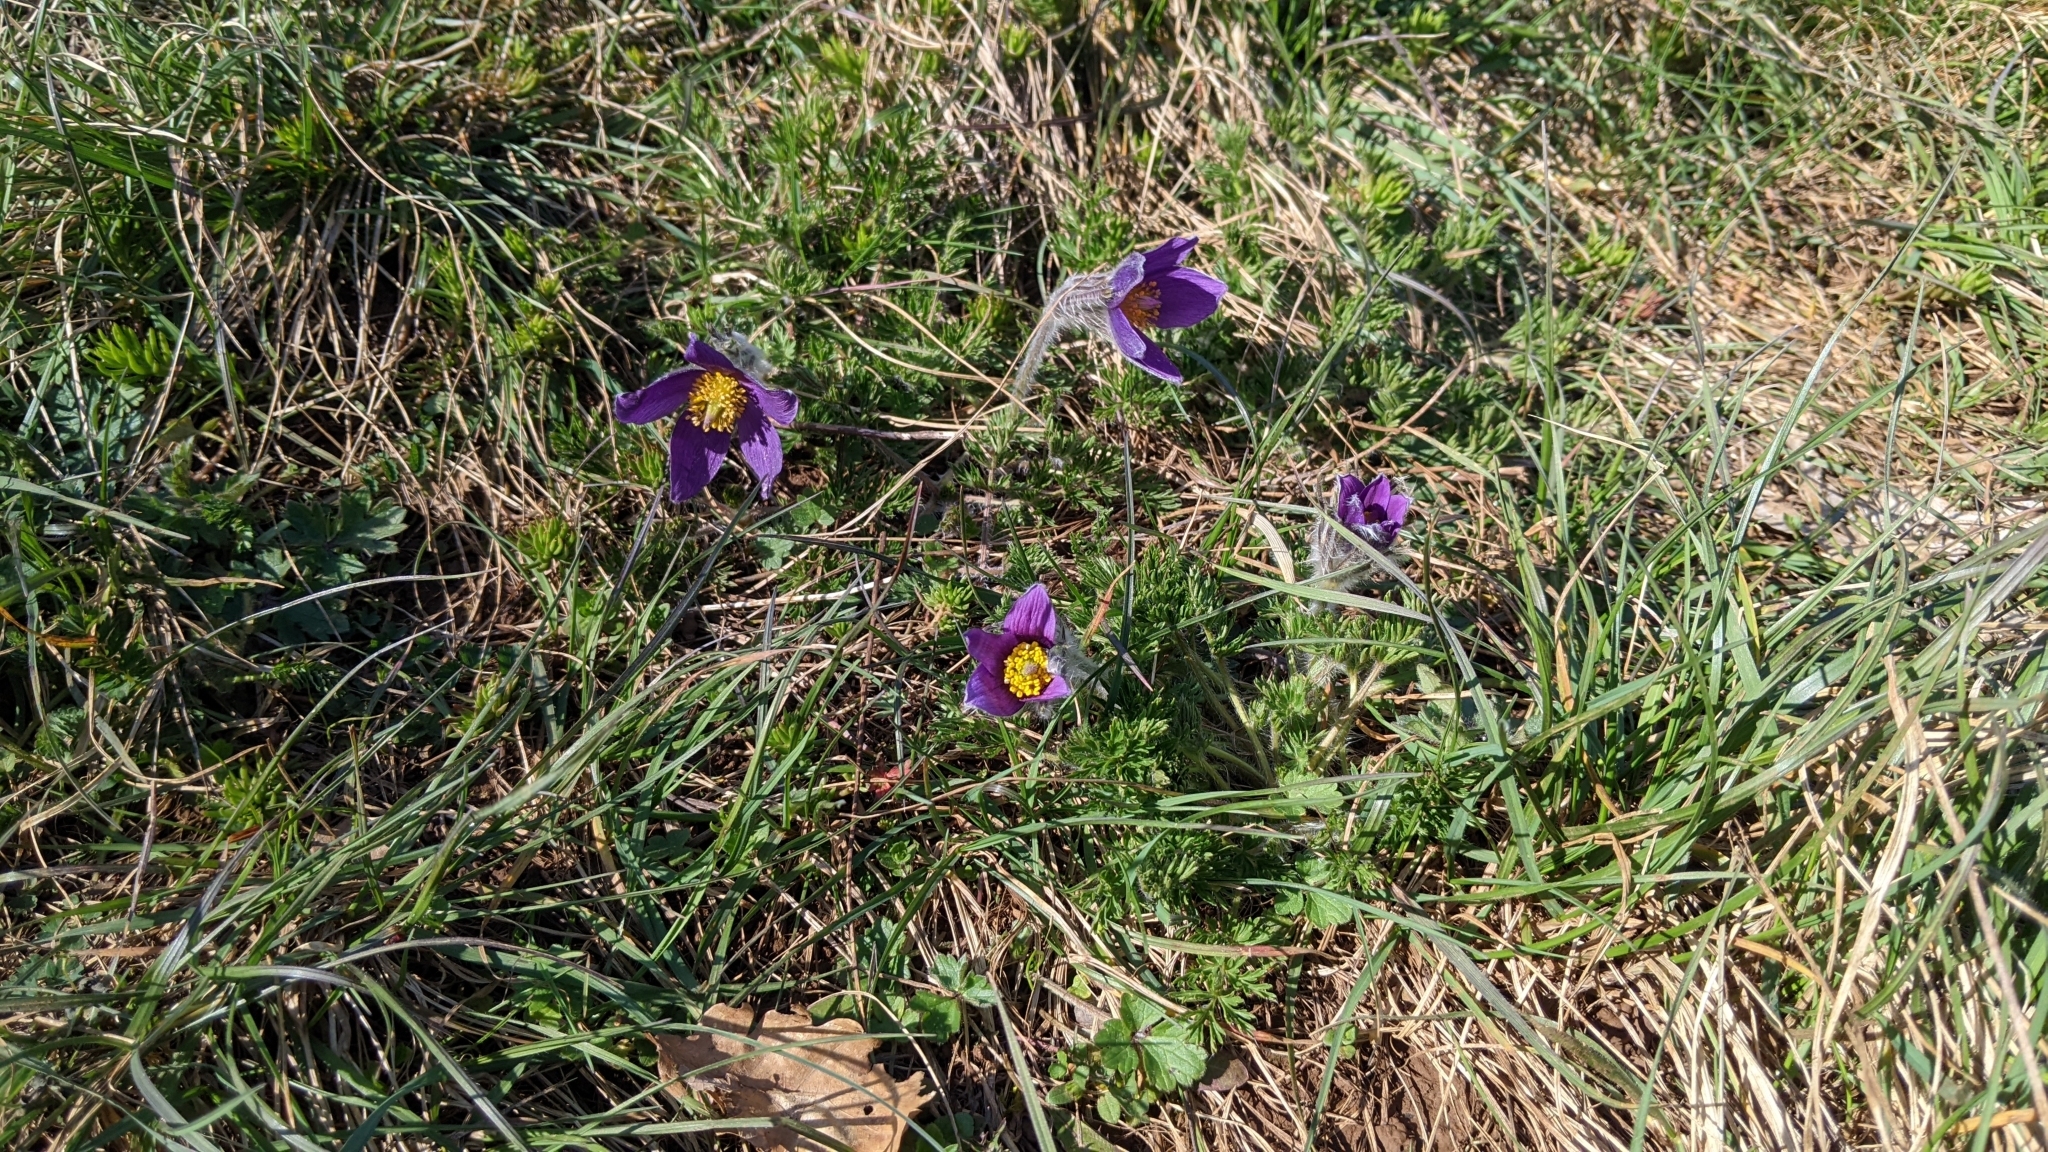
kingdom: Plantae
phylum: Tracheophyta
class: Magnoliopsida
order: Ranunculales
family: Ranunculaceae
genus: Pulsatilla
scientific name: Pulsatilla vulgaris
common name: Pasqueflower
